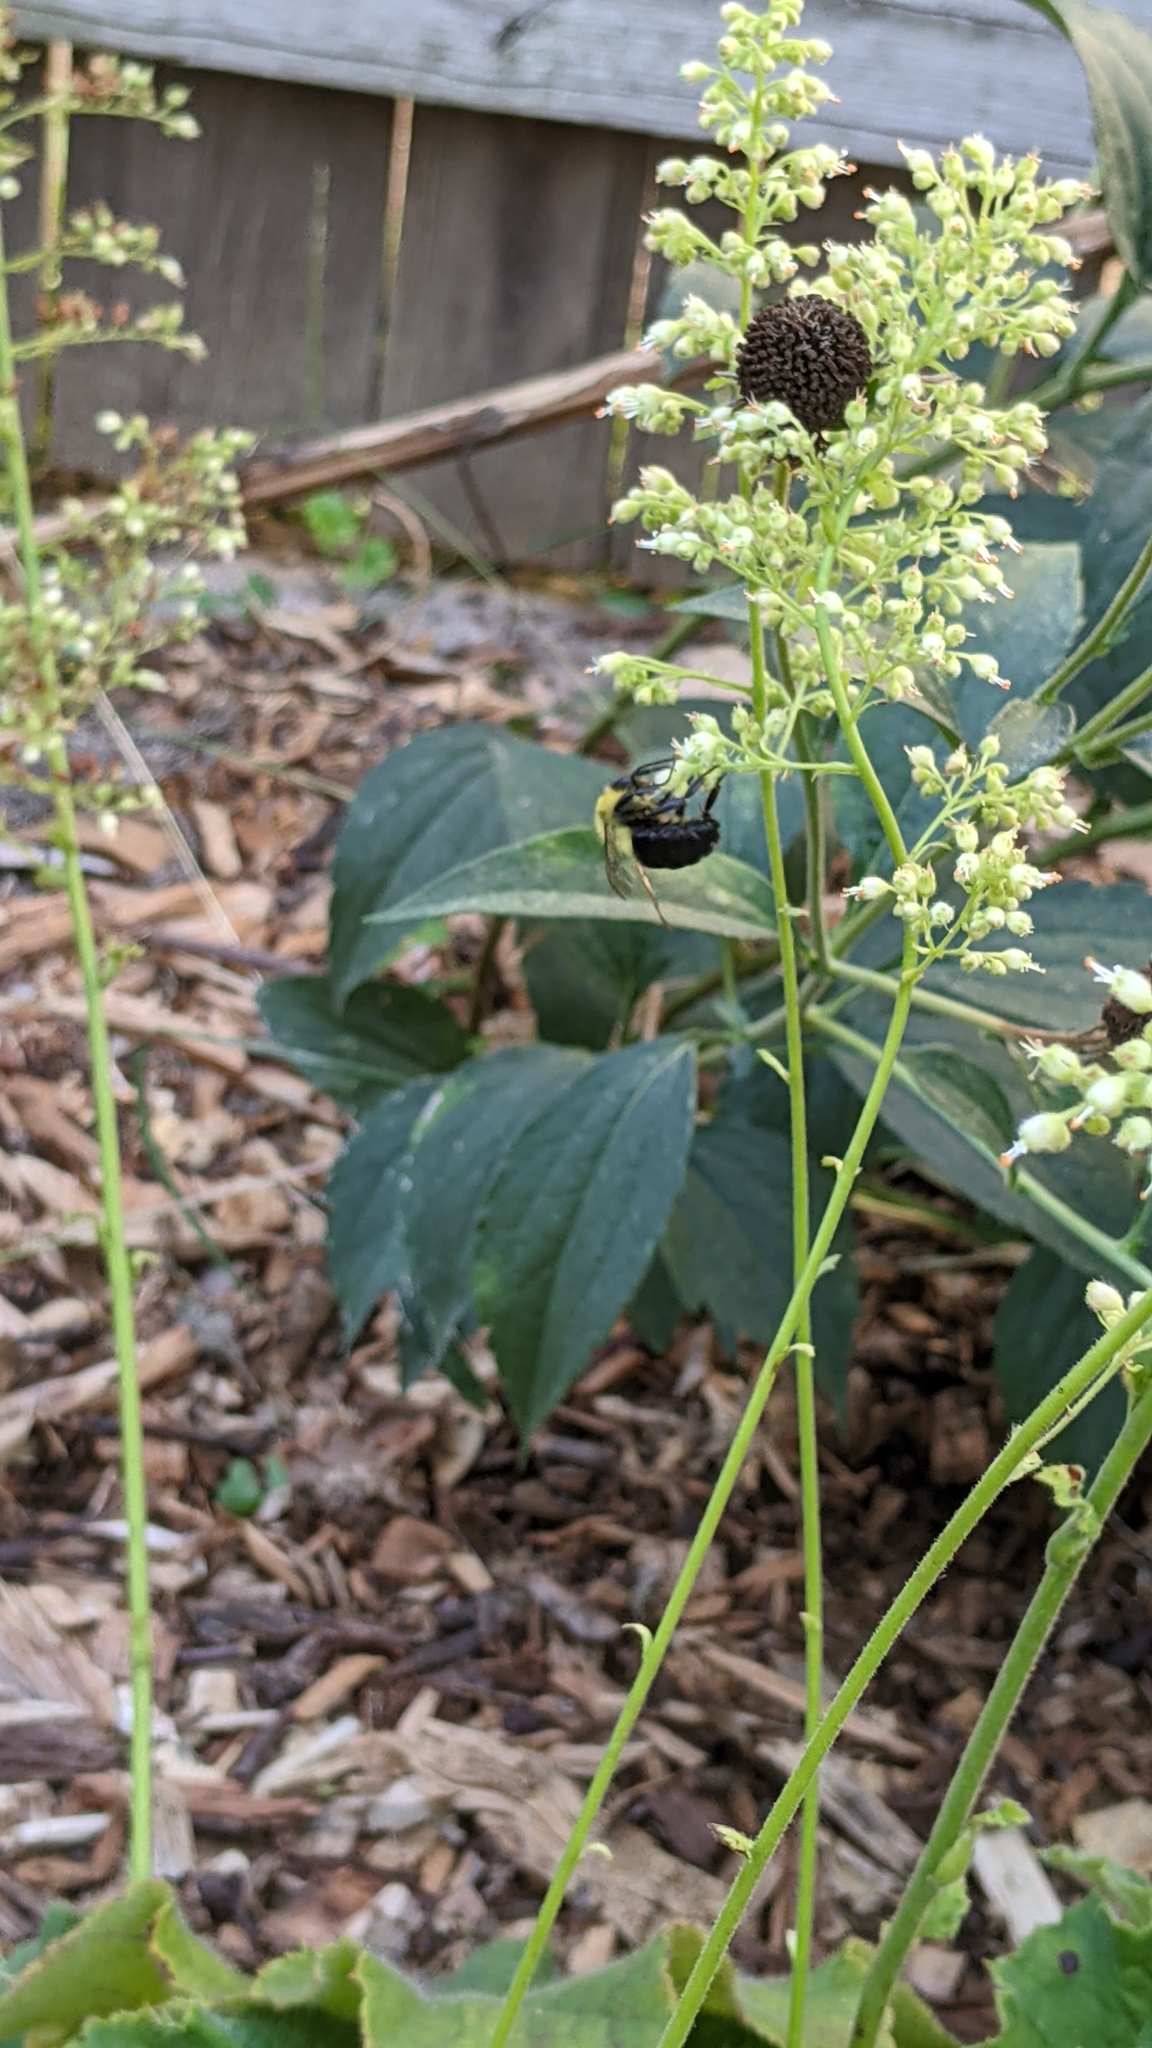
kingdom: Animalia
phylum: Arthropoda
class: Insecta
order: Hymenoptera
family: Apidae
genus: Bombus
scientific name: Bombus impatiens
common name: Common eastern bumble bee
